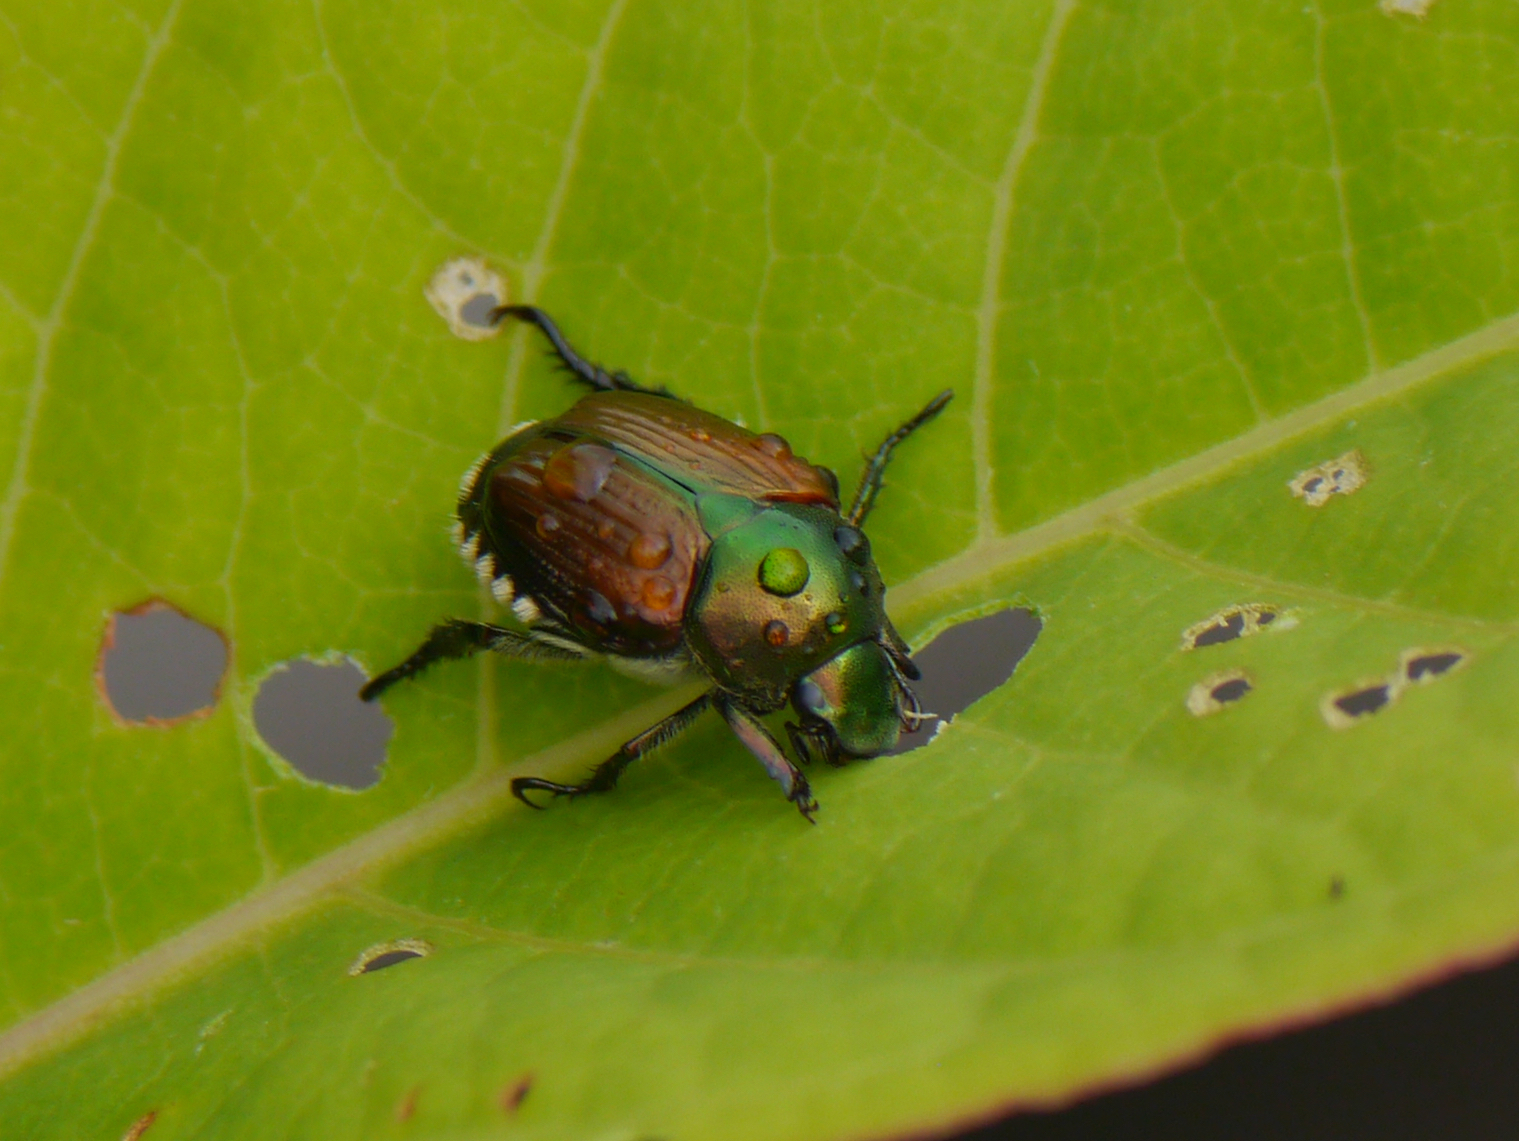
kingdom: Animalia
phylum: Arthropoda
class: Insecta
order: Coleoptera
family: Scarabaeidae
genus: Popillia
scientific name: Popillia japonica
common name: Japanese beetle
